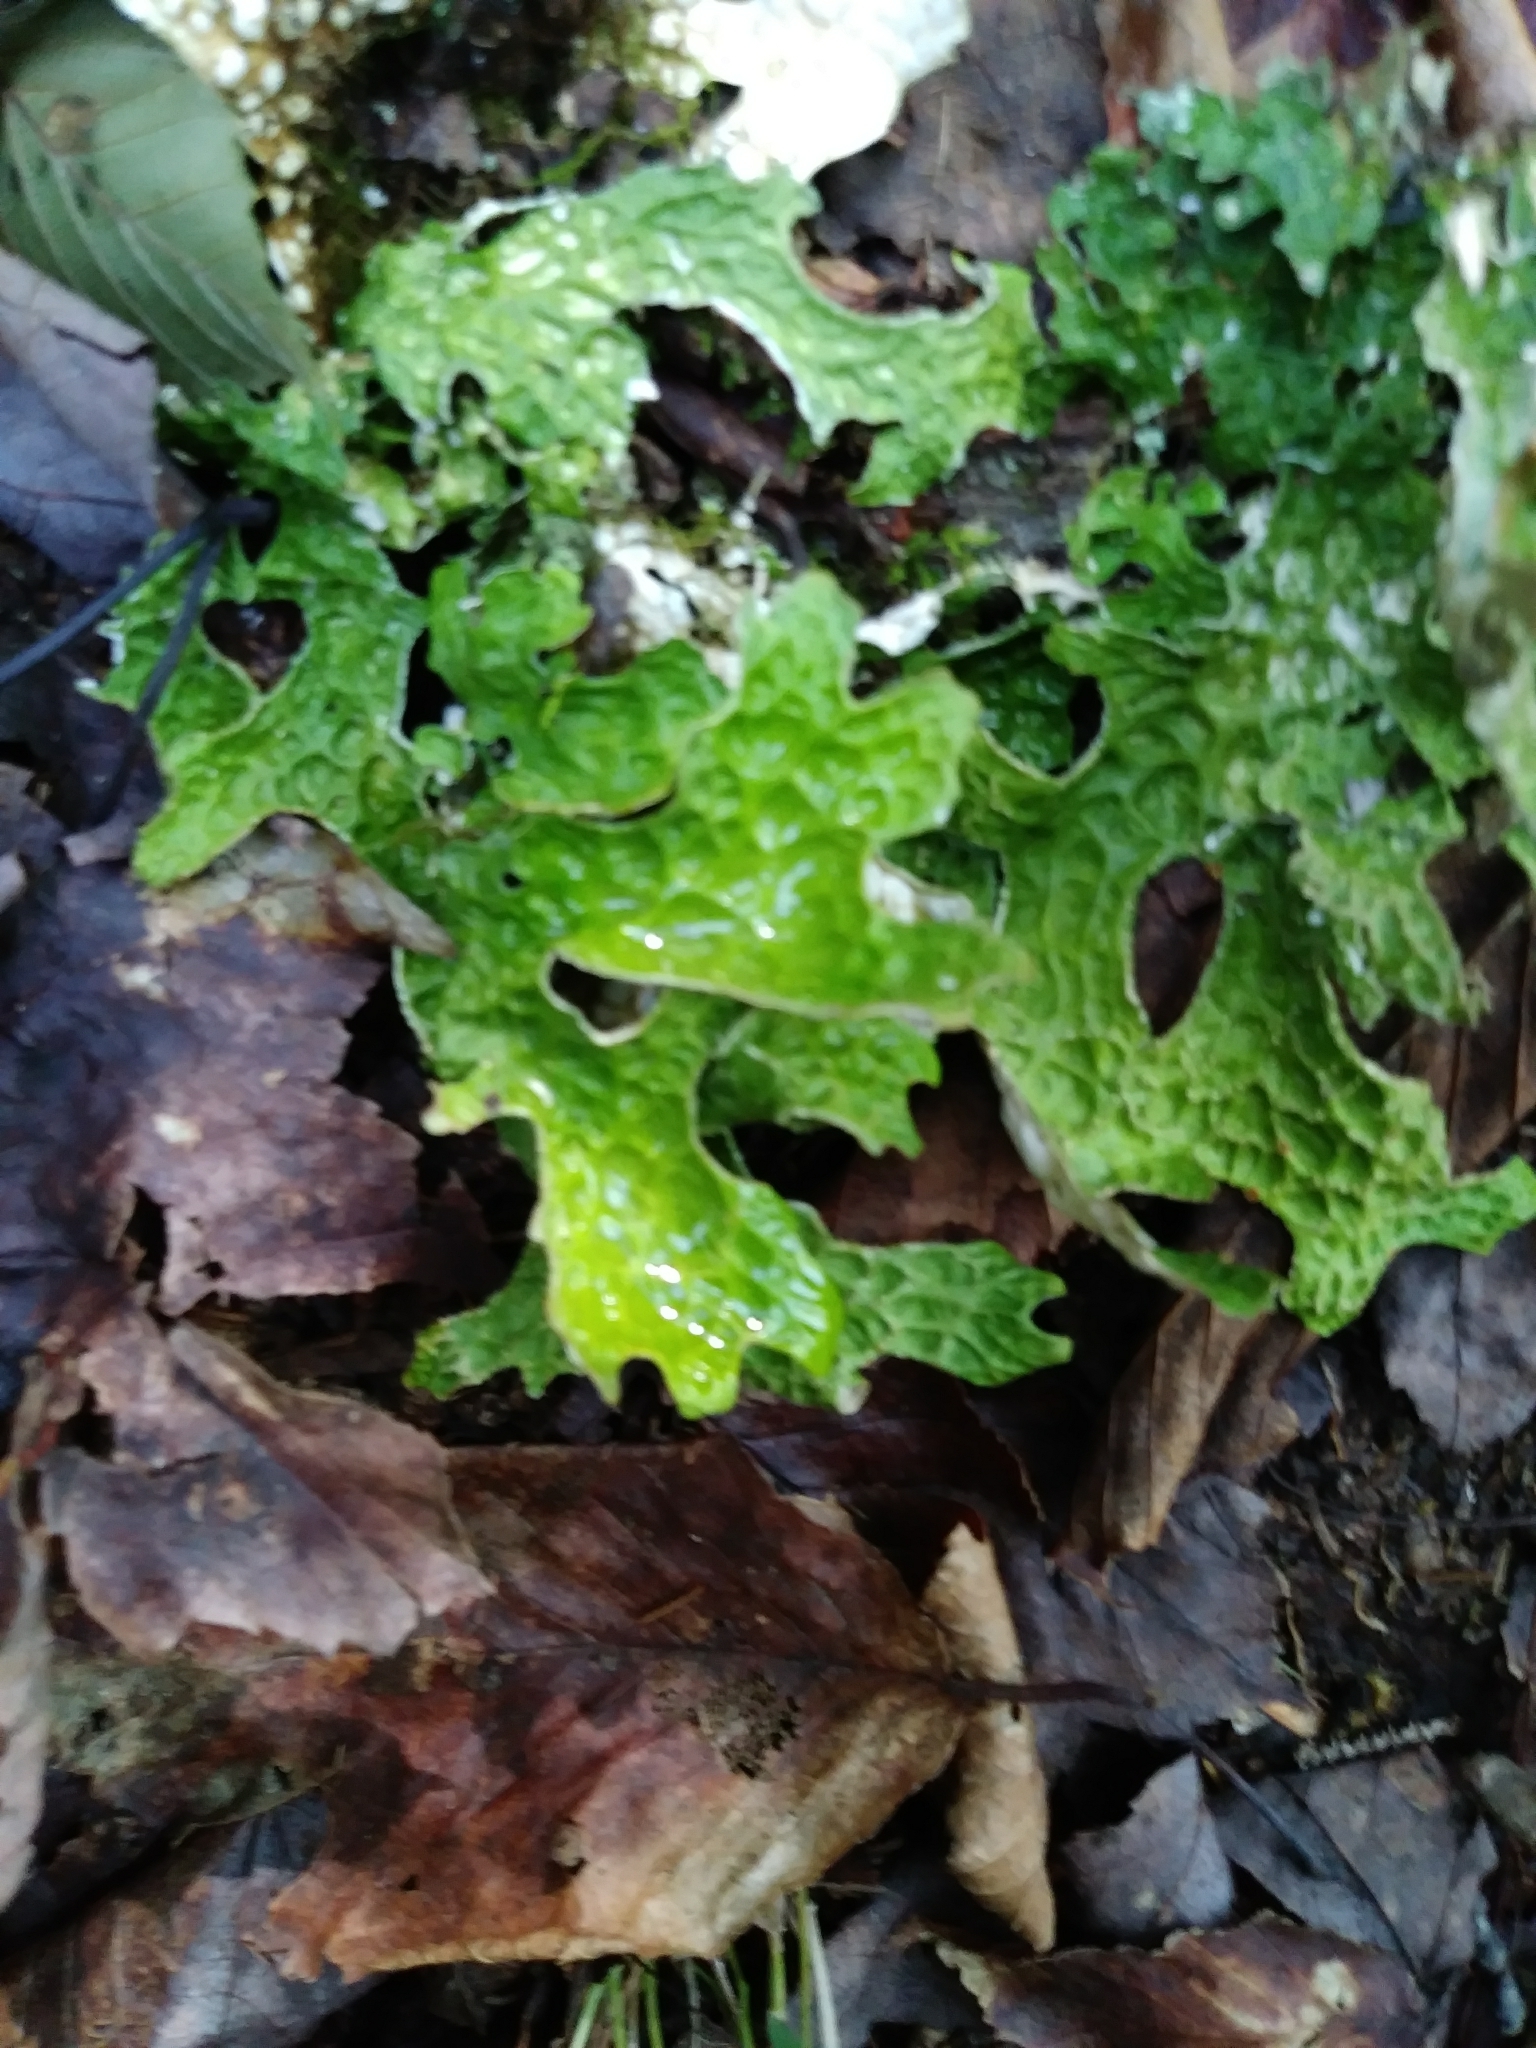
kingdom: Fungi
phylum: Ascomycota
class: Lecanoromycetes
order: Peltigerales
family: Lobariaceae
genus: Lobaria
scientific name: Lobaria pulmonaria
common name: Lungwort
